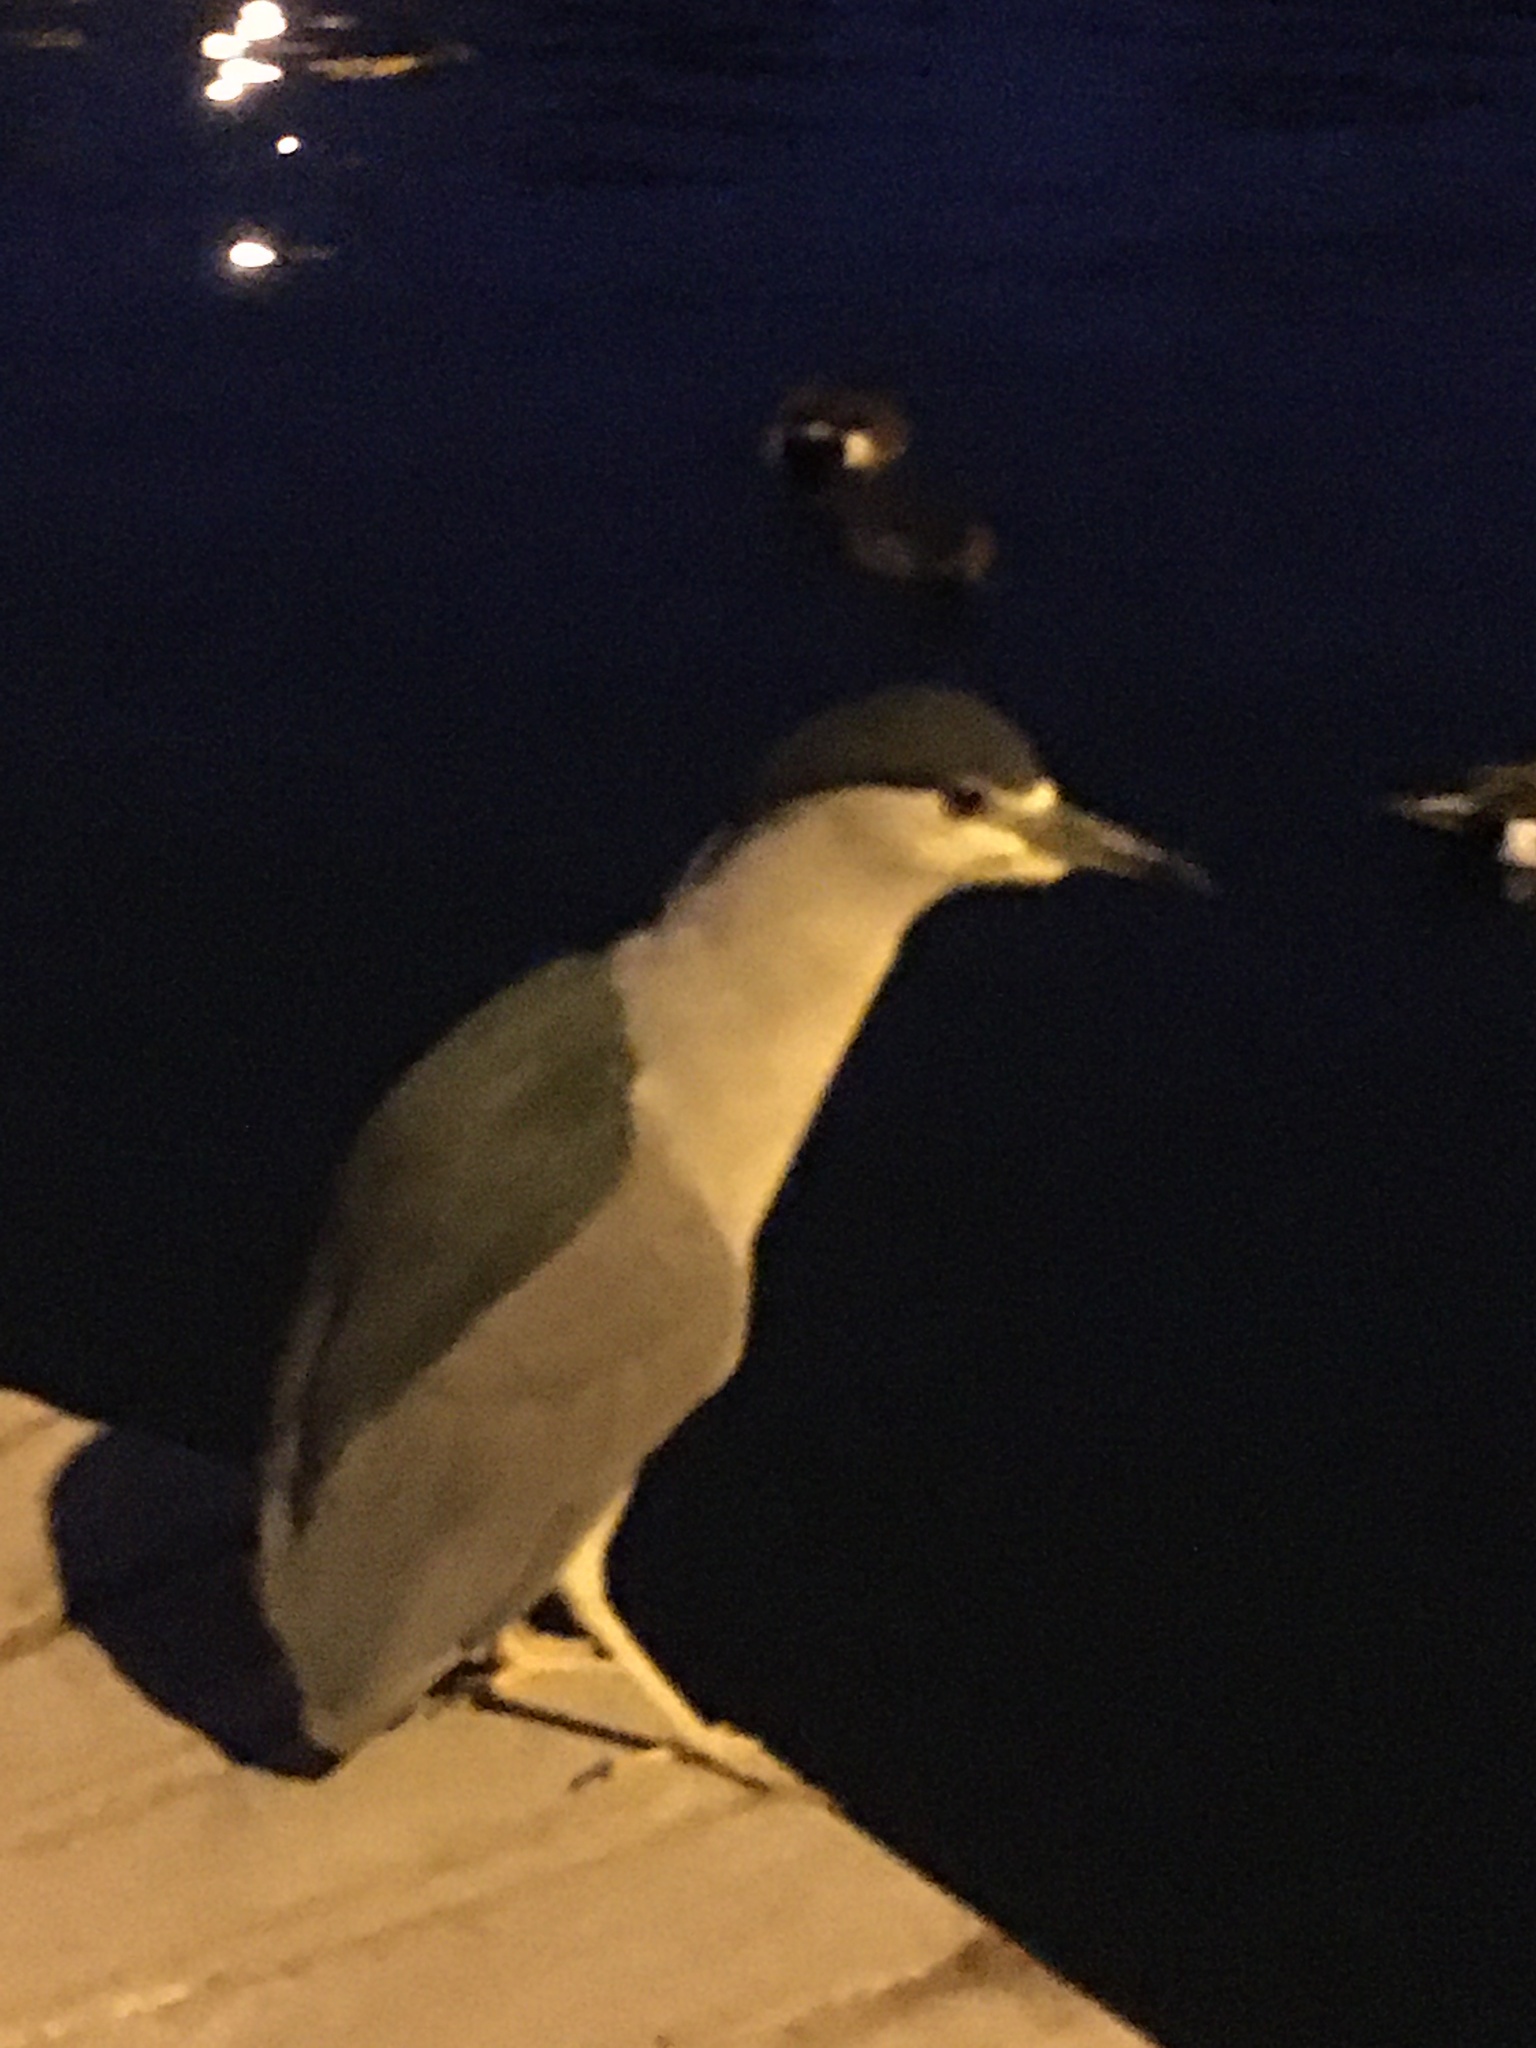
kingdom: Animalia
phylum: Chordata
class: Aves
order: Pelecaniformes
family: Ardeidae
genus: Nycticorax
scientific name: Nycticorax nycticorax
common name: Black-crowned night heron
